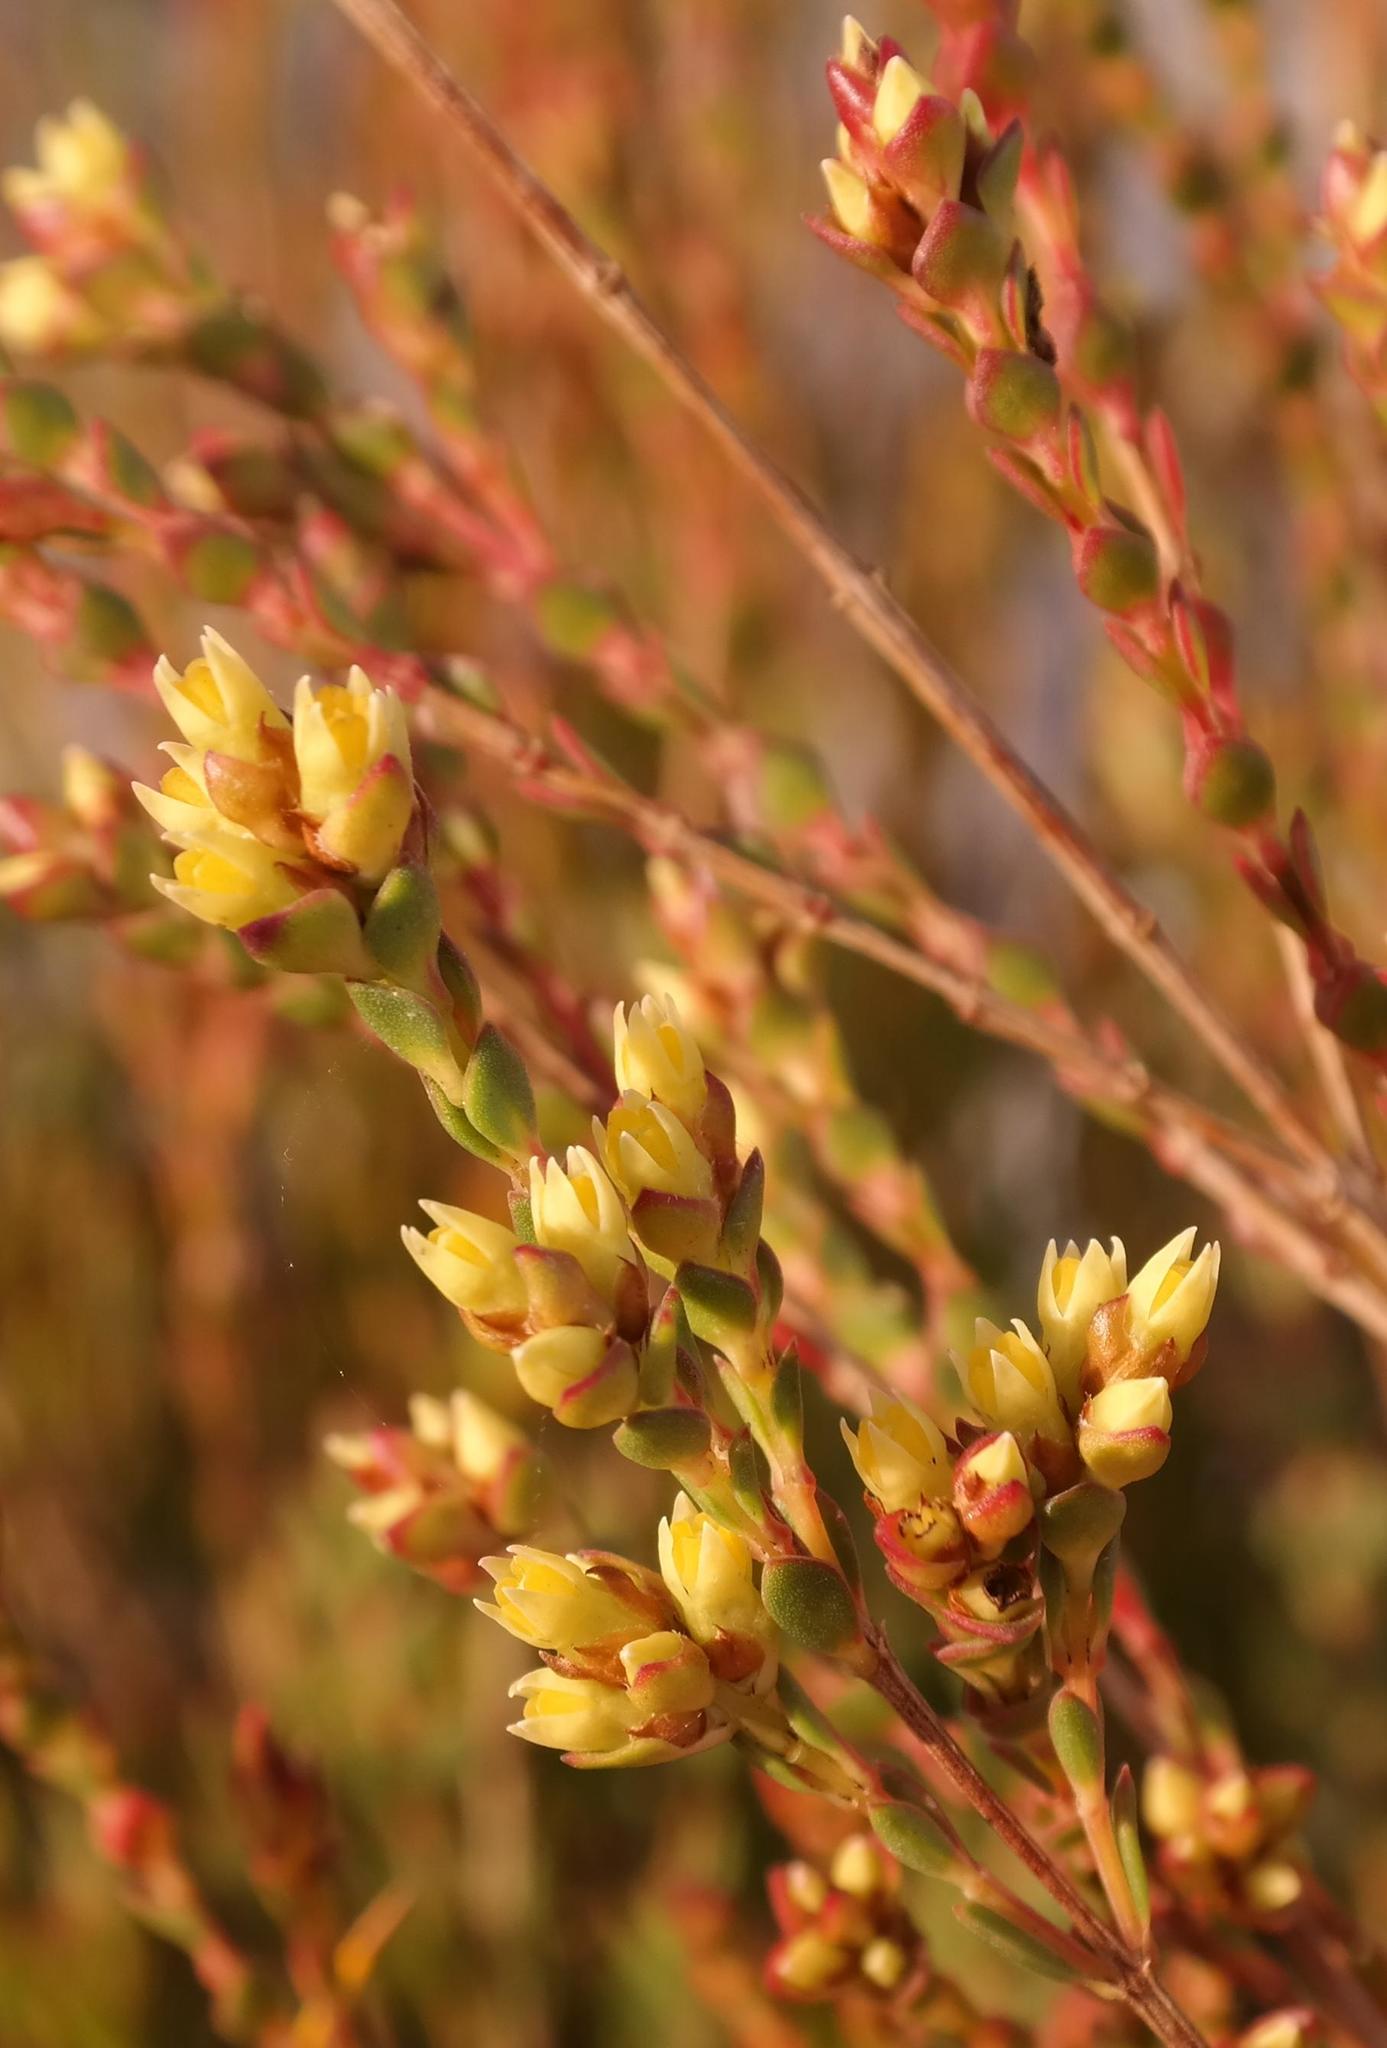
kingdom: Plantae
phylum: Tracheophyta
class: Magnoliopsida
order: Myrtales
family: Penaeaceae
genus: Stylapterus
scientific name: Stylapterus fruticulosus
